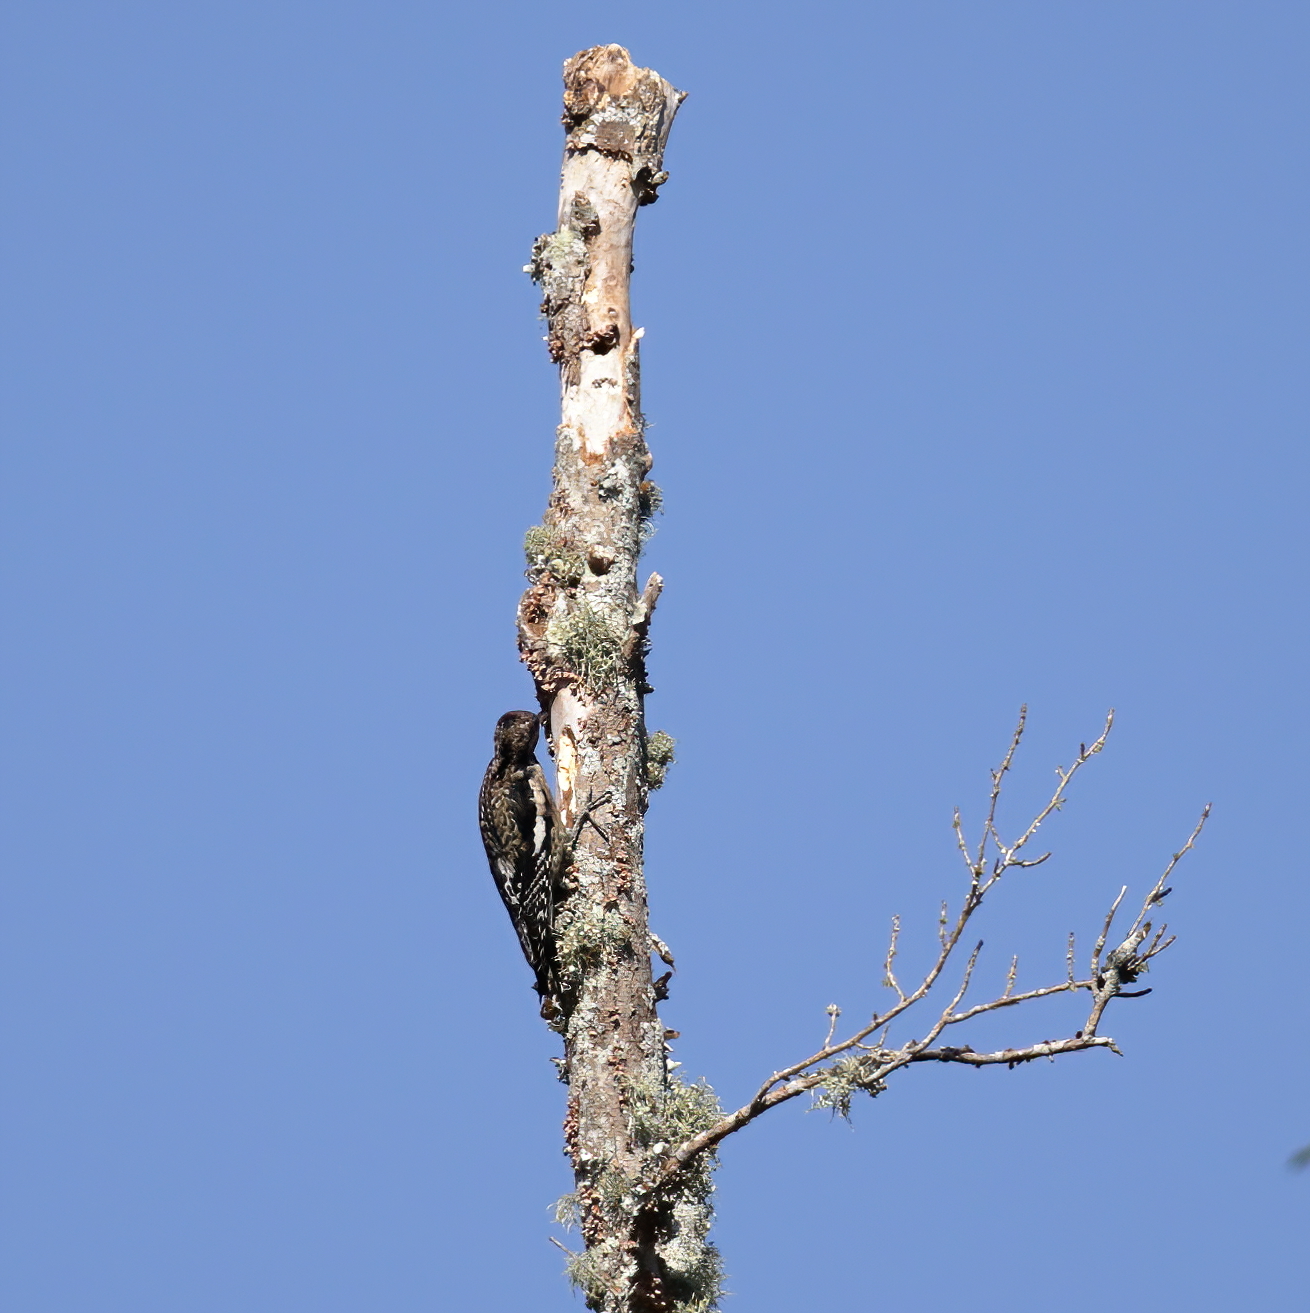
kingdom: Animalia
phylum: Chordata
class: Aves
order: Piciformes
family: Picidae
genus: Sphyrapicus
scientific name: Sphyrapicus varius
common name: Yellow-bellied sapsucker
